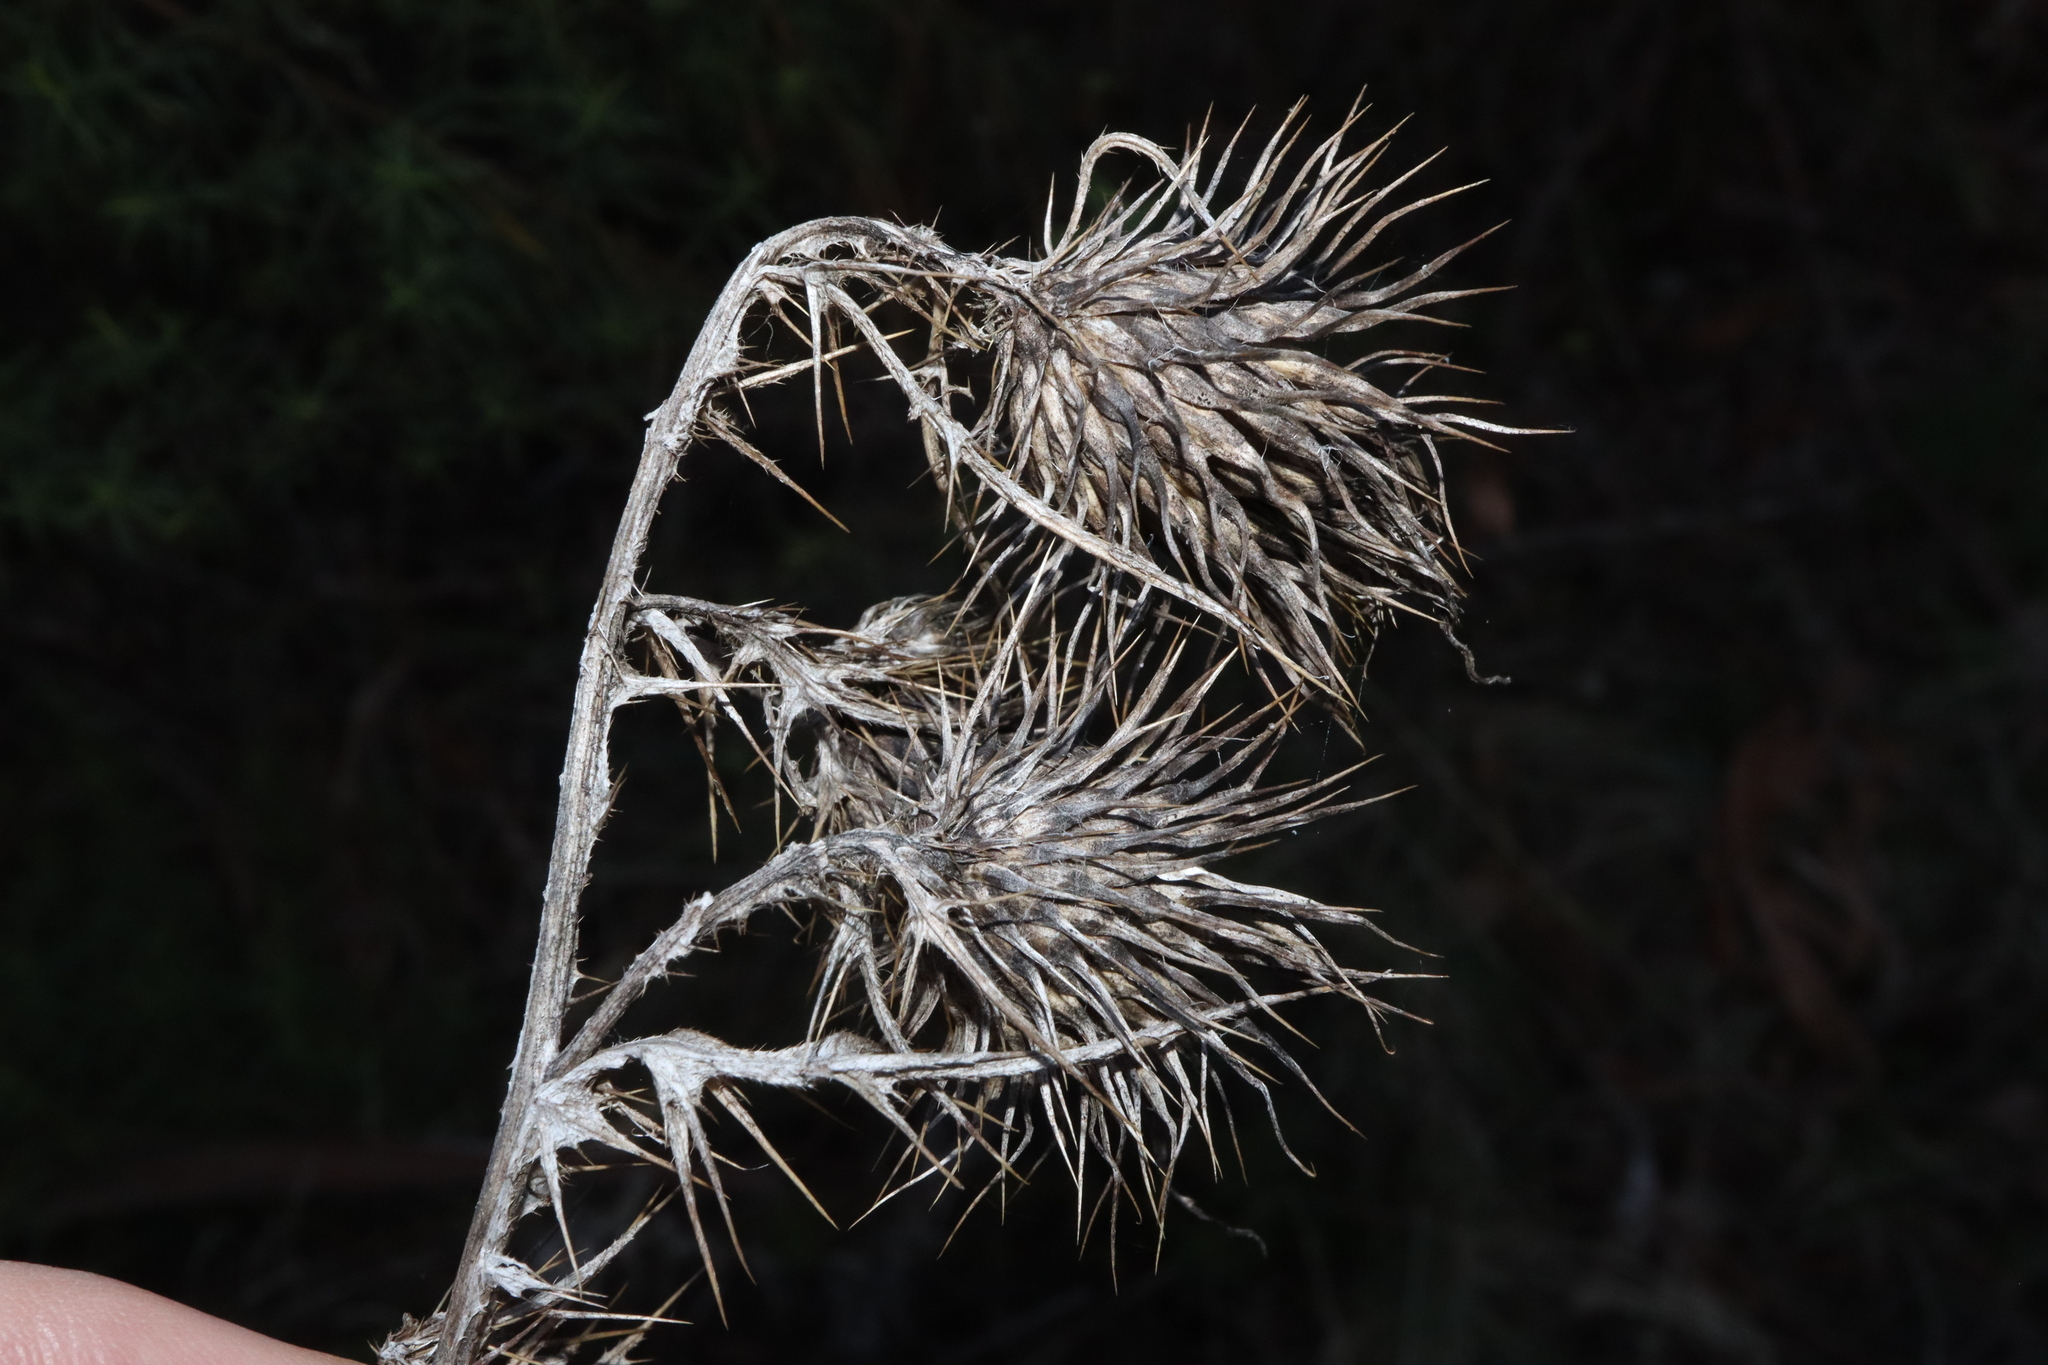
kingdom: Plantae
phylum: Tracheophyta
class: Magnoliopsida
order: Asterales
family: Asteraceae
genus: Cirsium
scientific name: Cirsium vulgare
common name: Bull thistle
